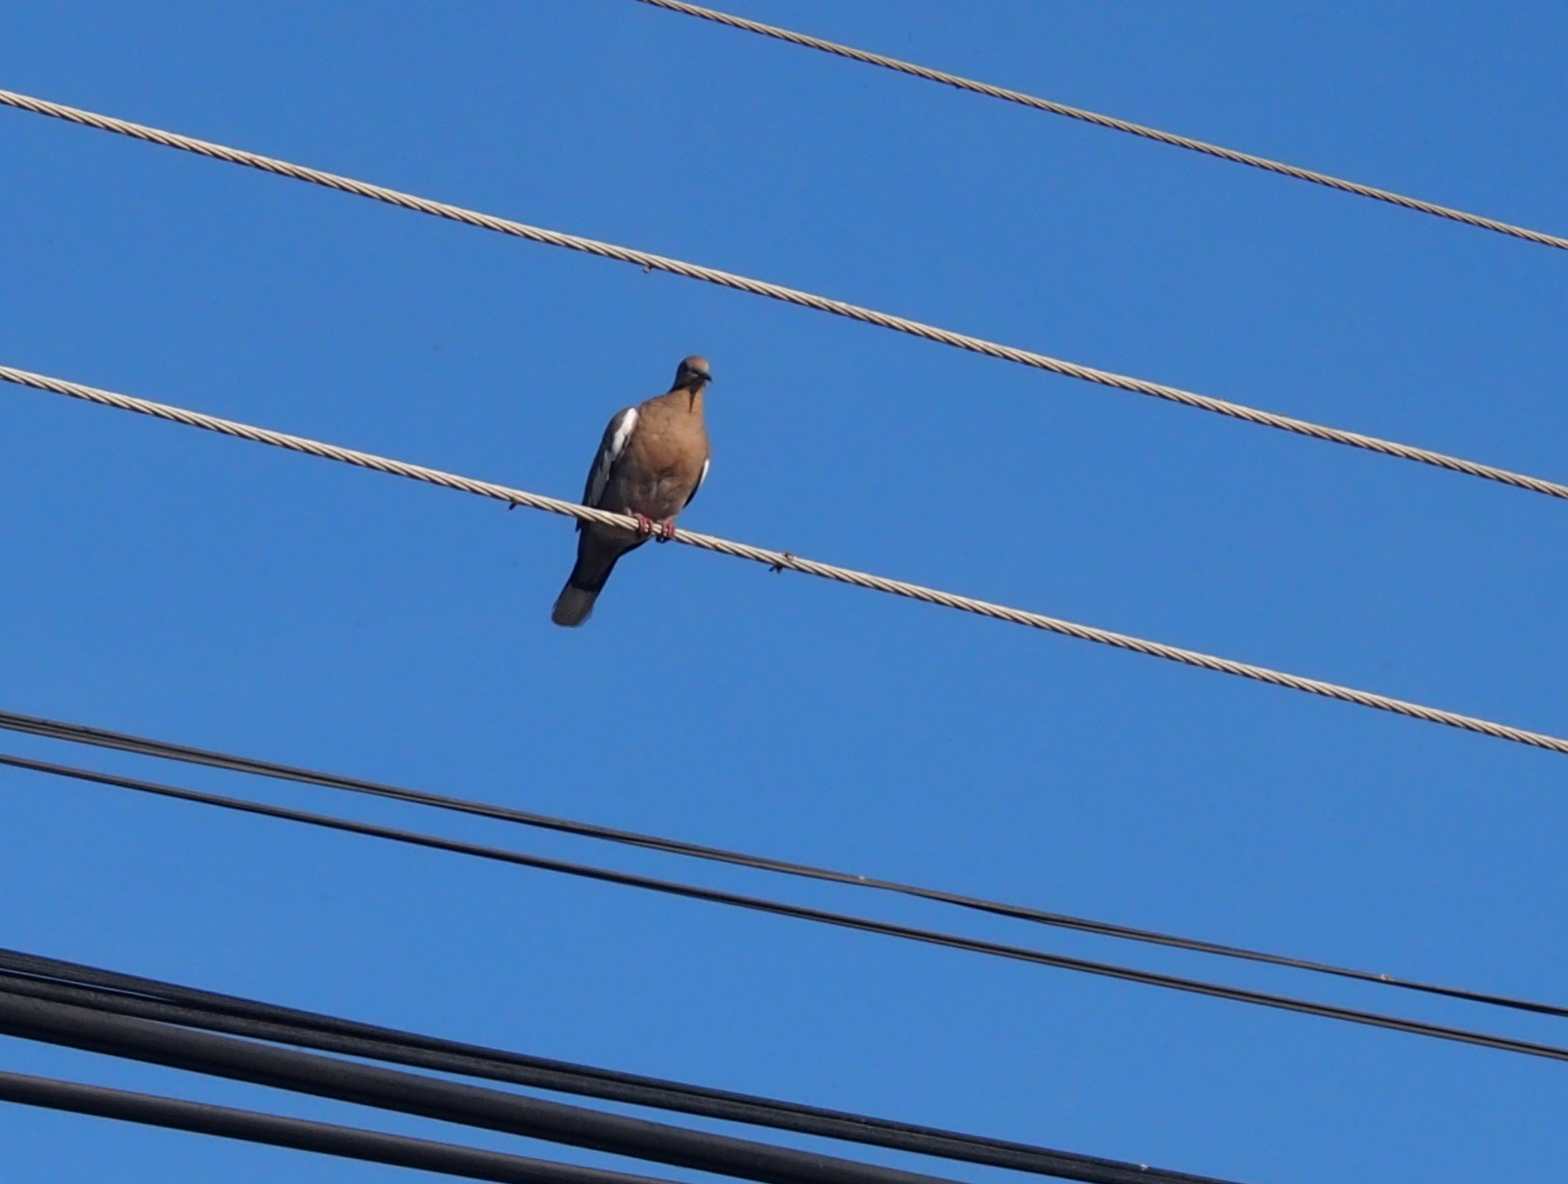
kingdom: Animalia
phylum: Chordata
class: Aves
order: Columbiformes
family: Columbidae
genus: Zenaida
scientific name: Zenaida asiatica
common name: White-winged dove
